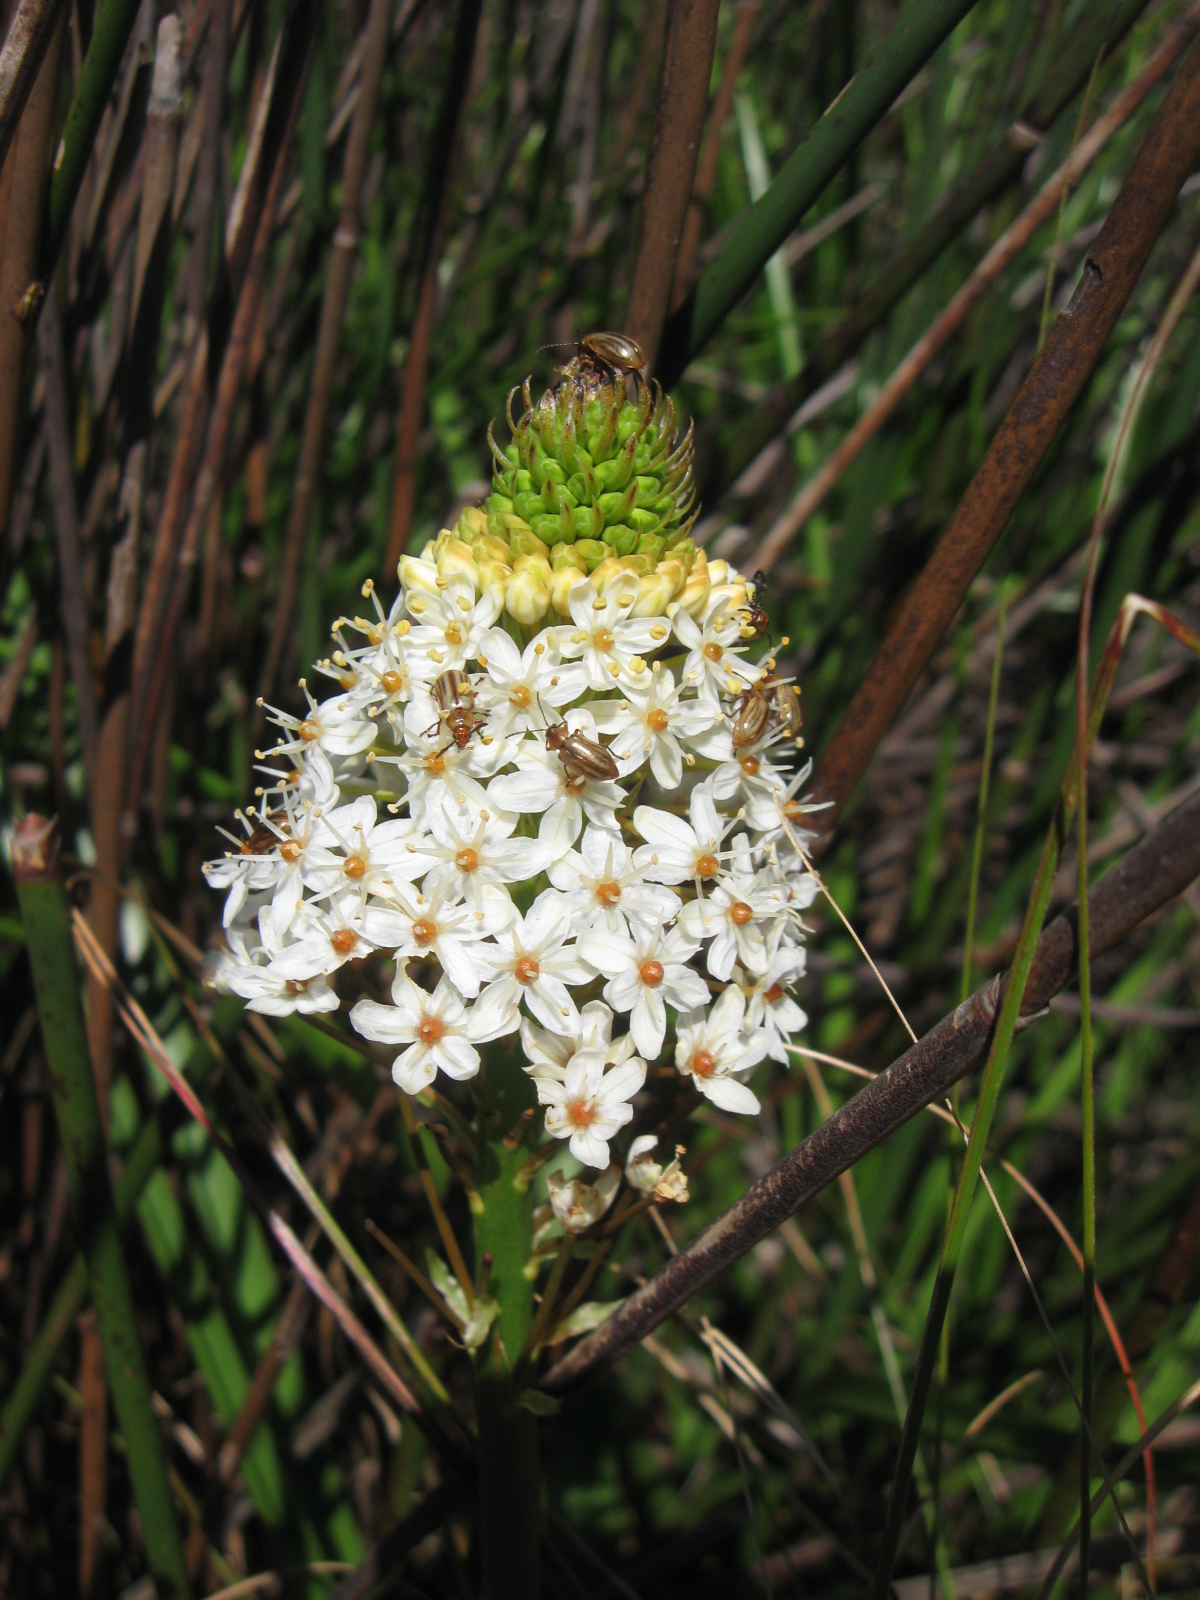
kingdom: Plantae
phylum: Tracheophyta
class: Liliopsida
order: Asparagales
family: Asphodelaceae
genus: Bulbinella
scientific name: Bulbinella nutans
